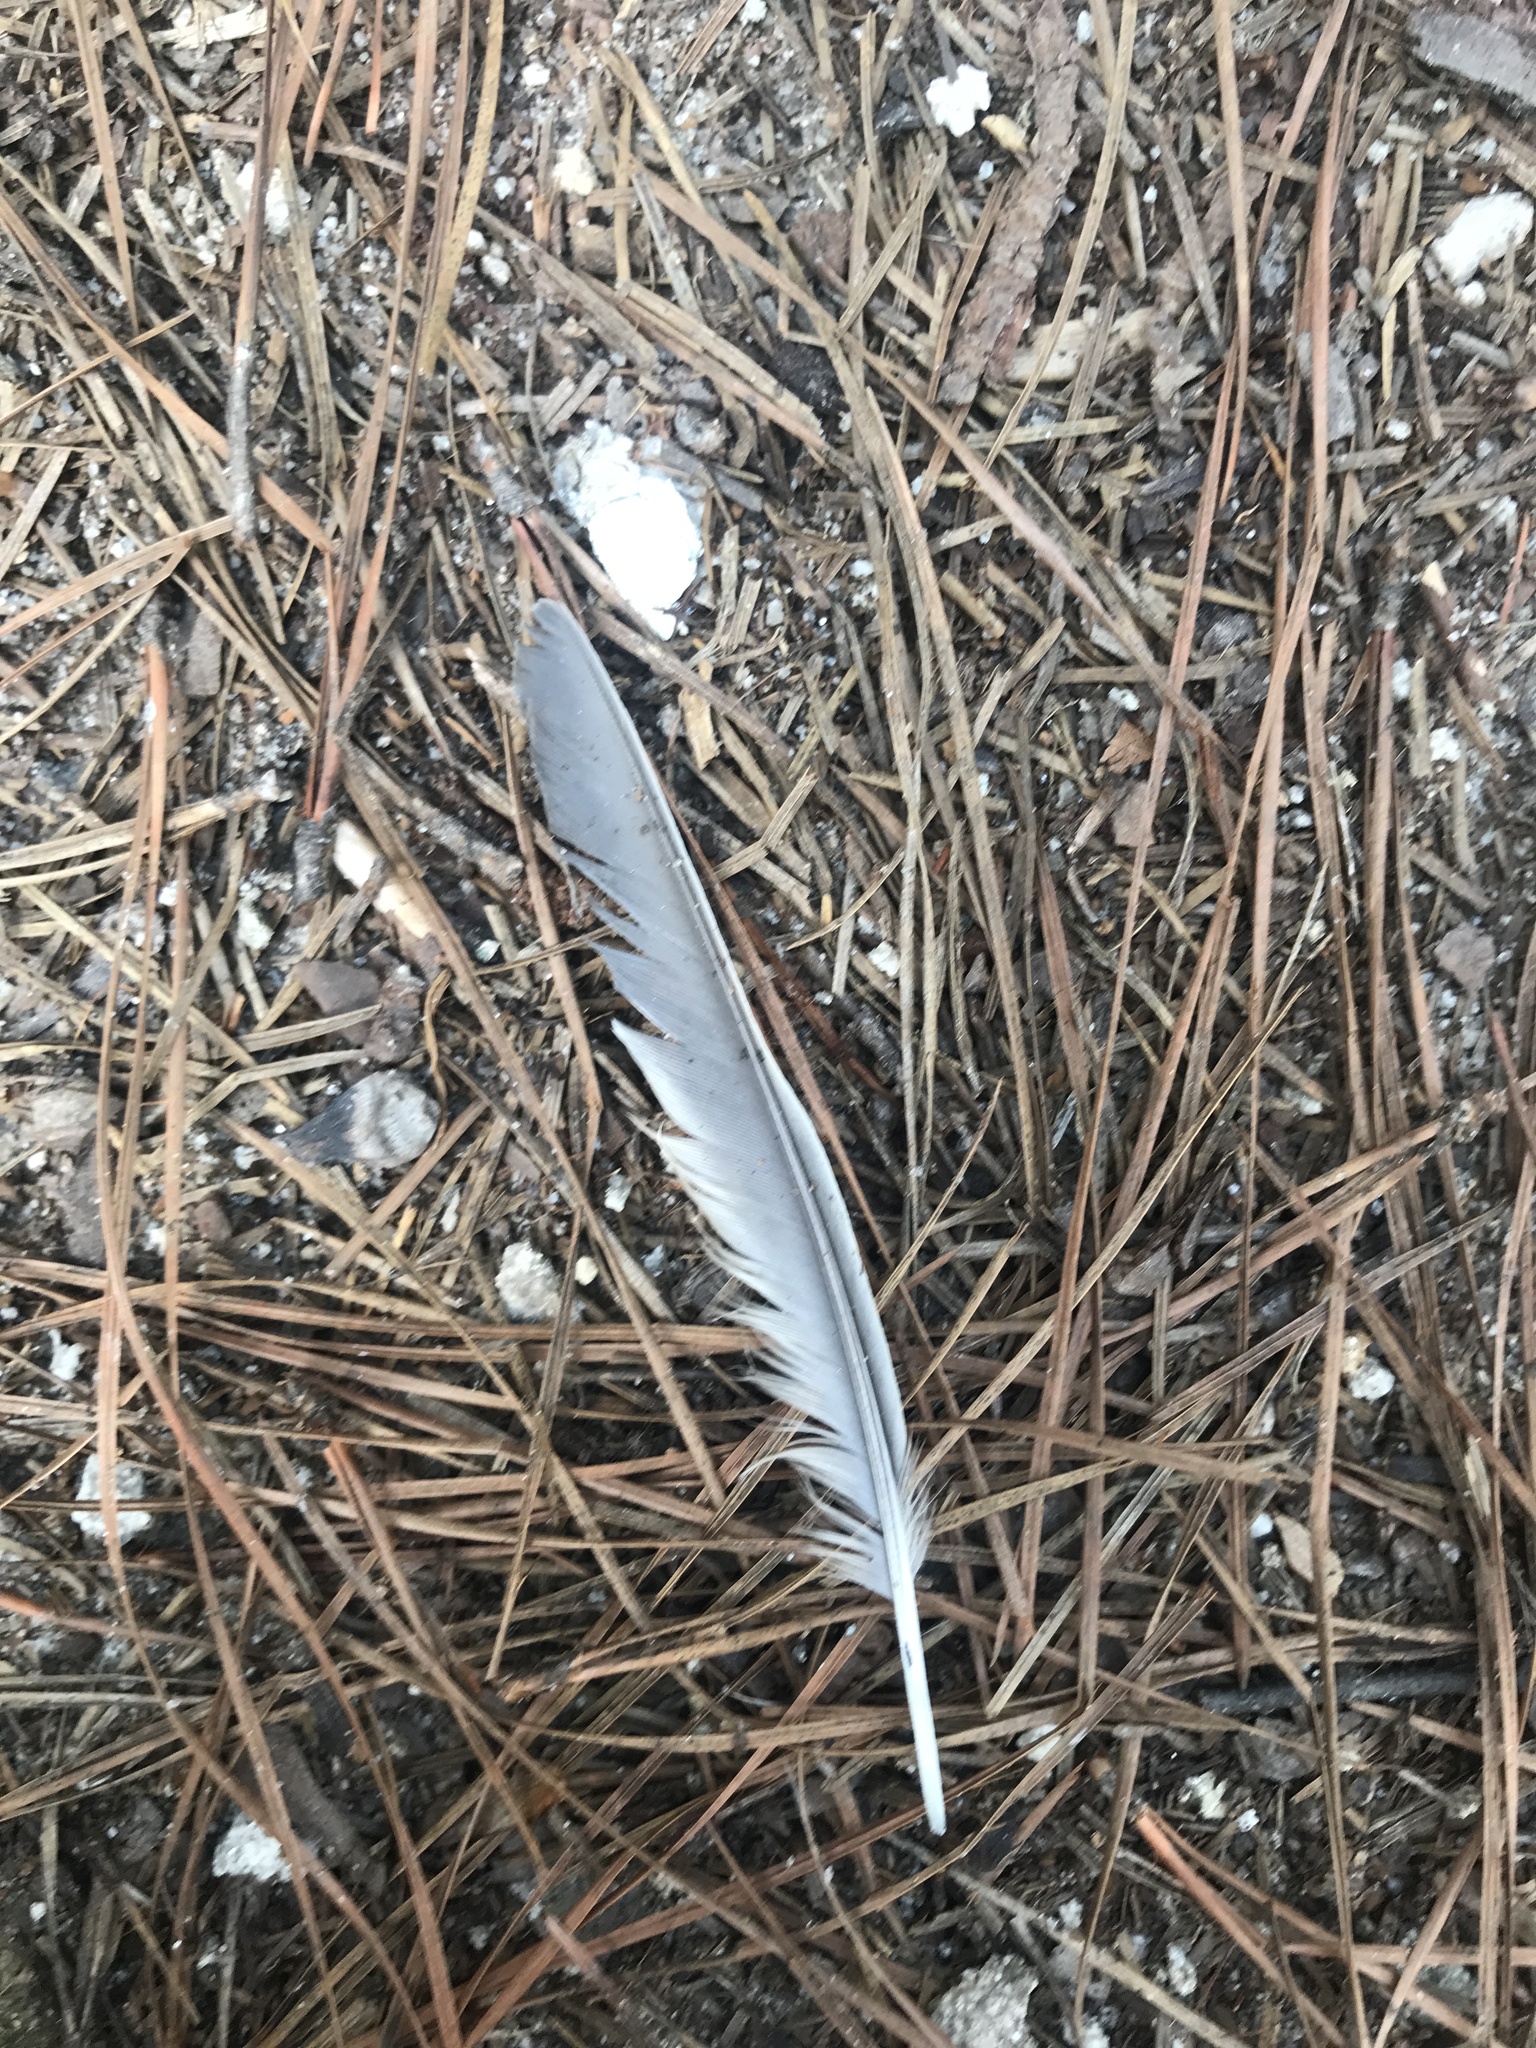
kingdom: Animalia
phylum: Chordata
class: Aves
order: Passeriformes
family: Turdidae
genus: Turdus
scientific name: Turdus migratorius
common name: American robin
